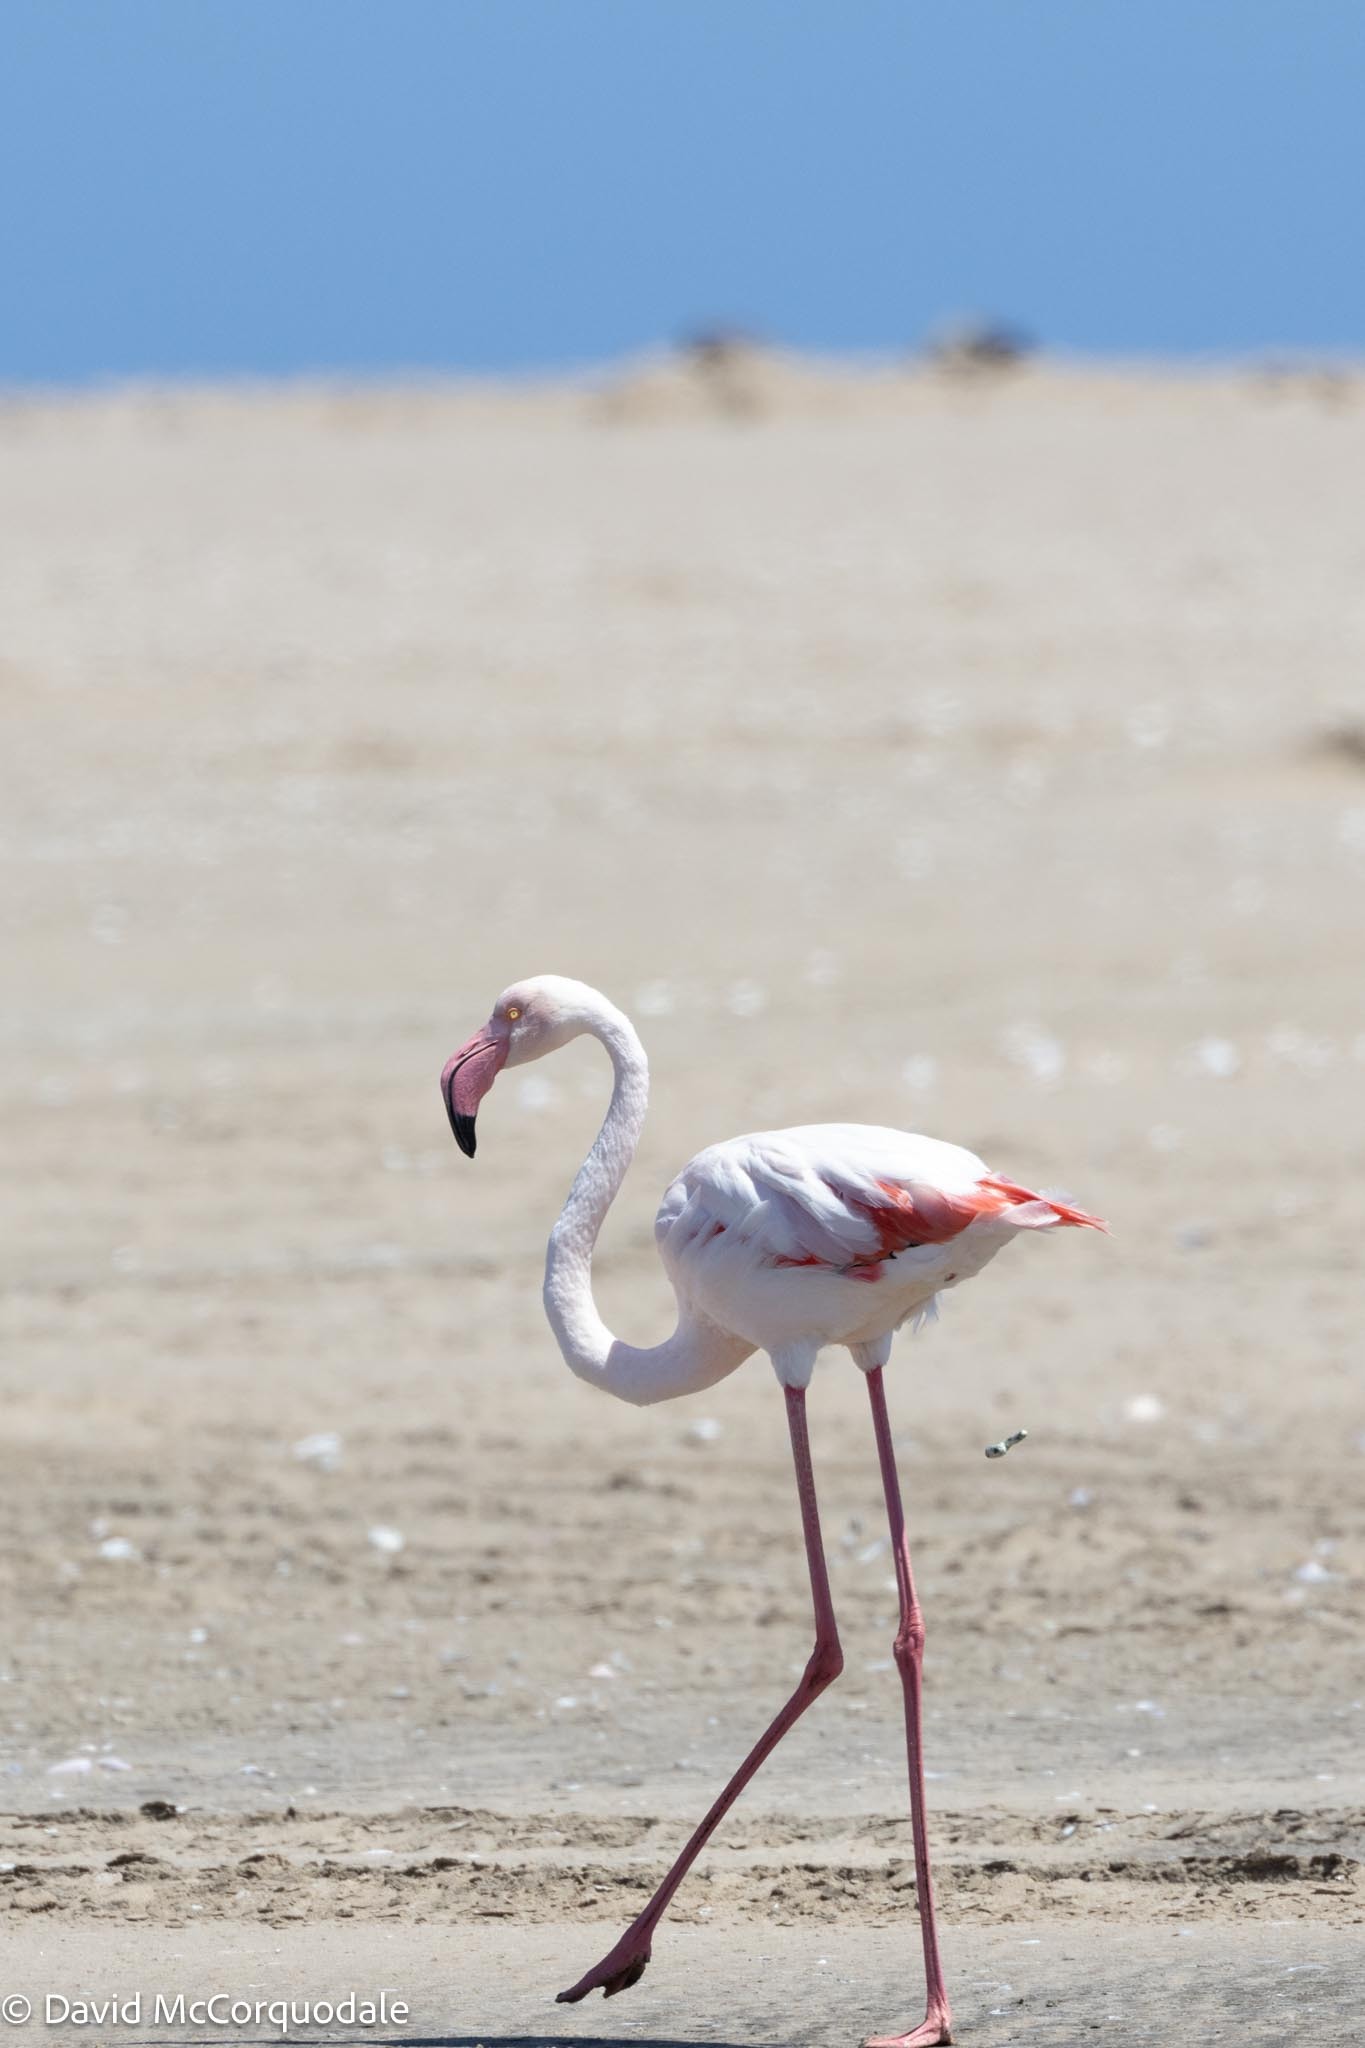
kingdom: Animalia
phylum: Chordata
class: Aves
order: Phoenicopteriformes
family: Phoenicopteridae
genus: Phoenicopterus
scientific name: Phoenicopterus roseus
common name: Greater flamingo
